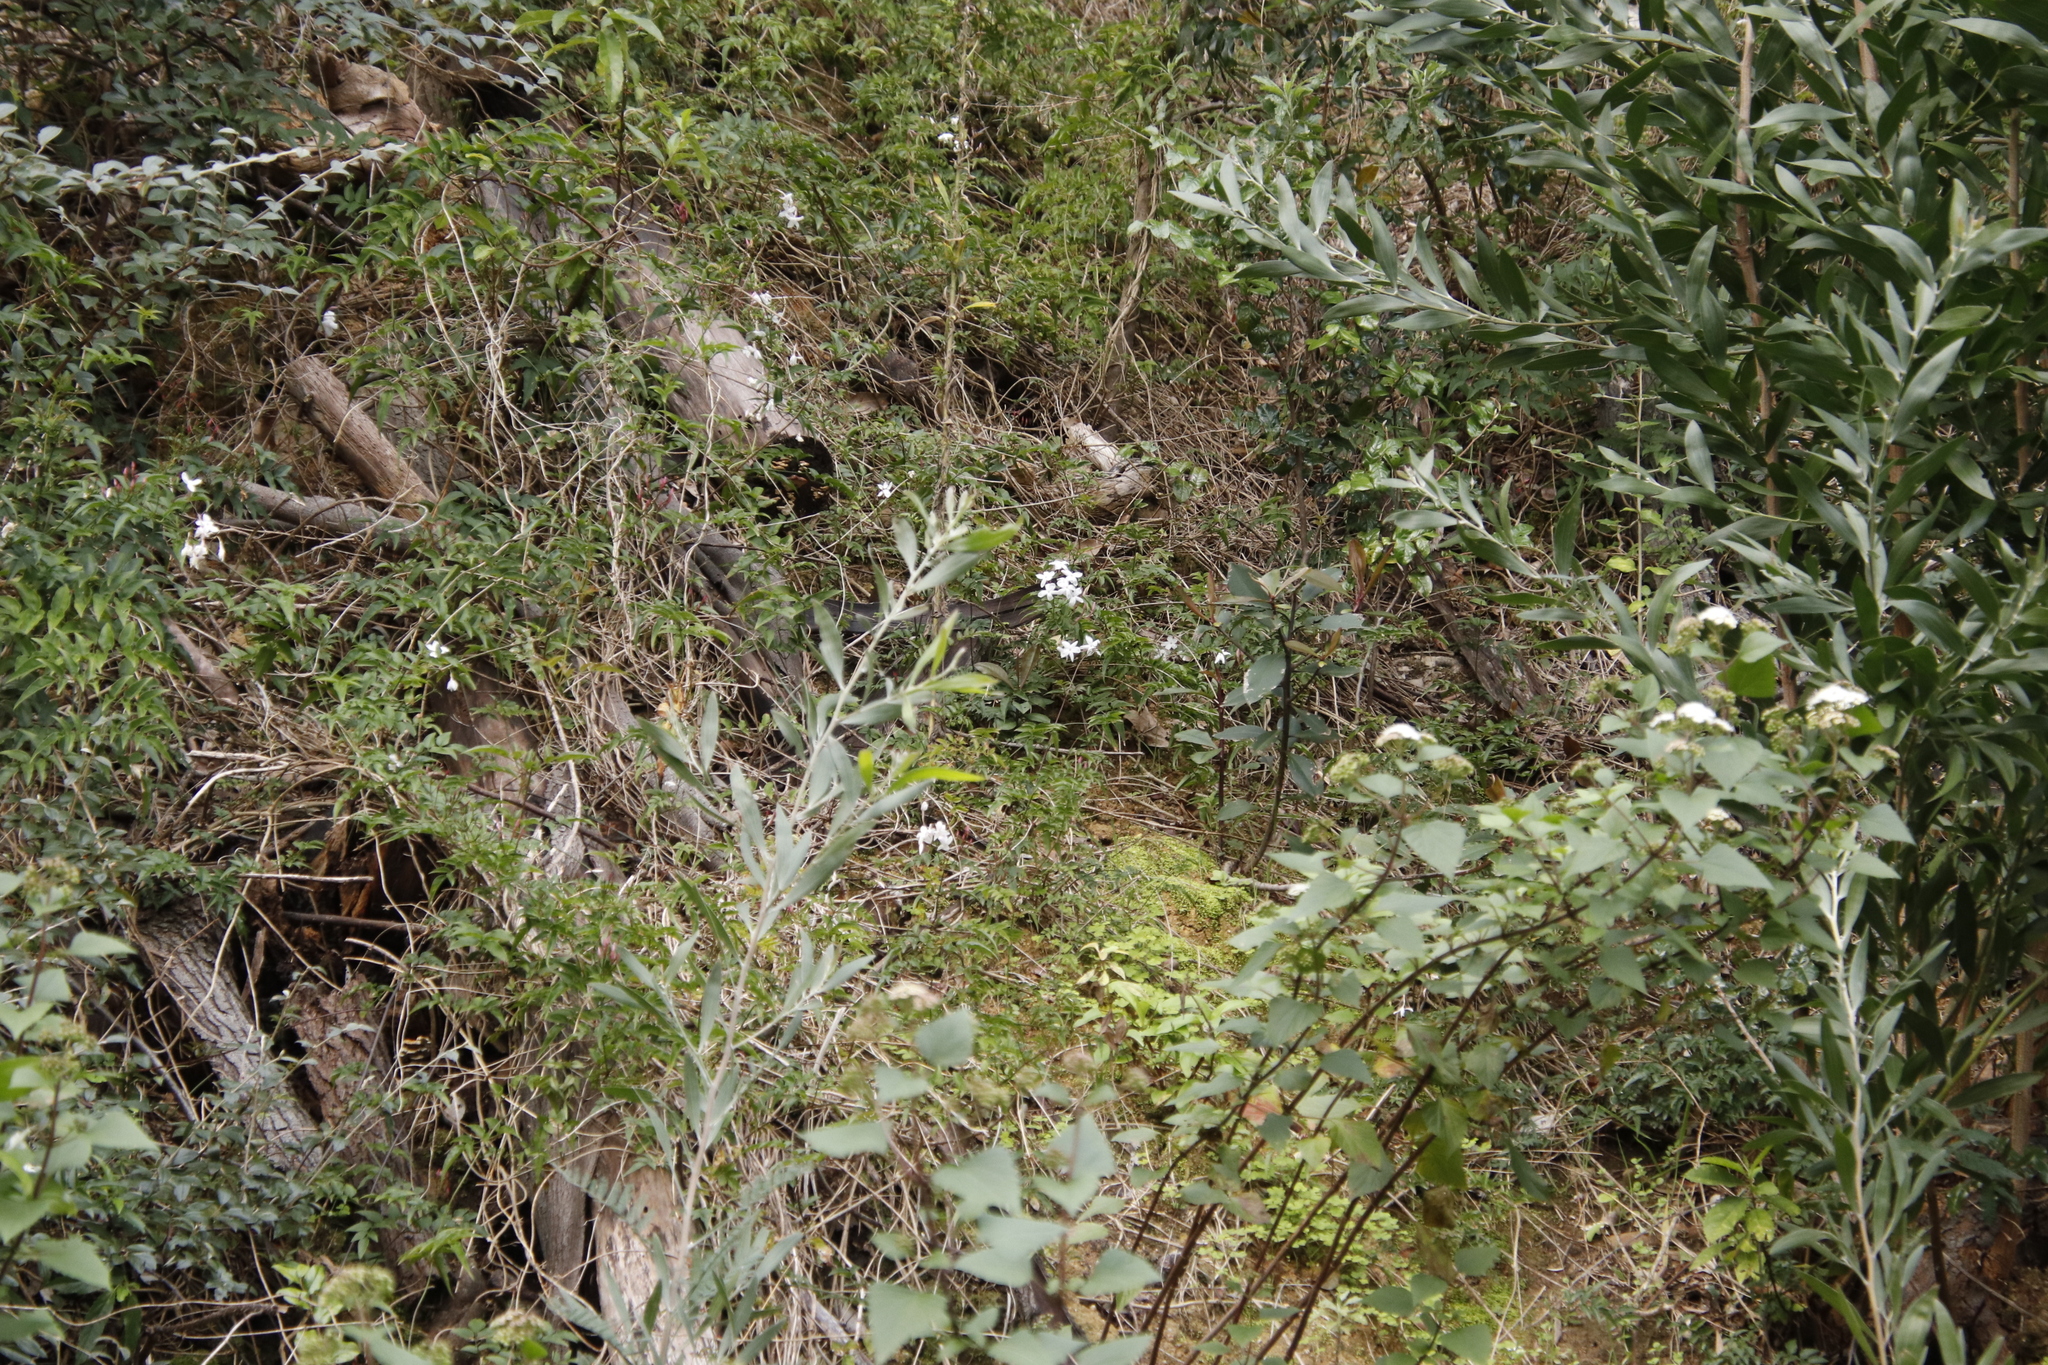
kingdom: Plantae
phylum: Tracheophyta
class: Magnoliopsida
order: Lamiales
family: Oleaceae
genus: Jasminum
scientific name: Jasminum polyanthum
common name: Pink jasmine
